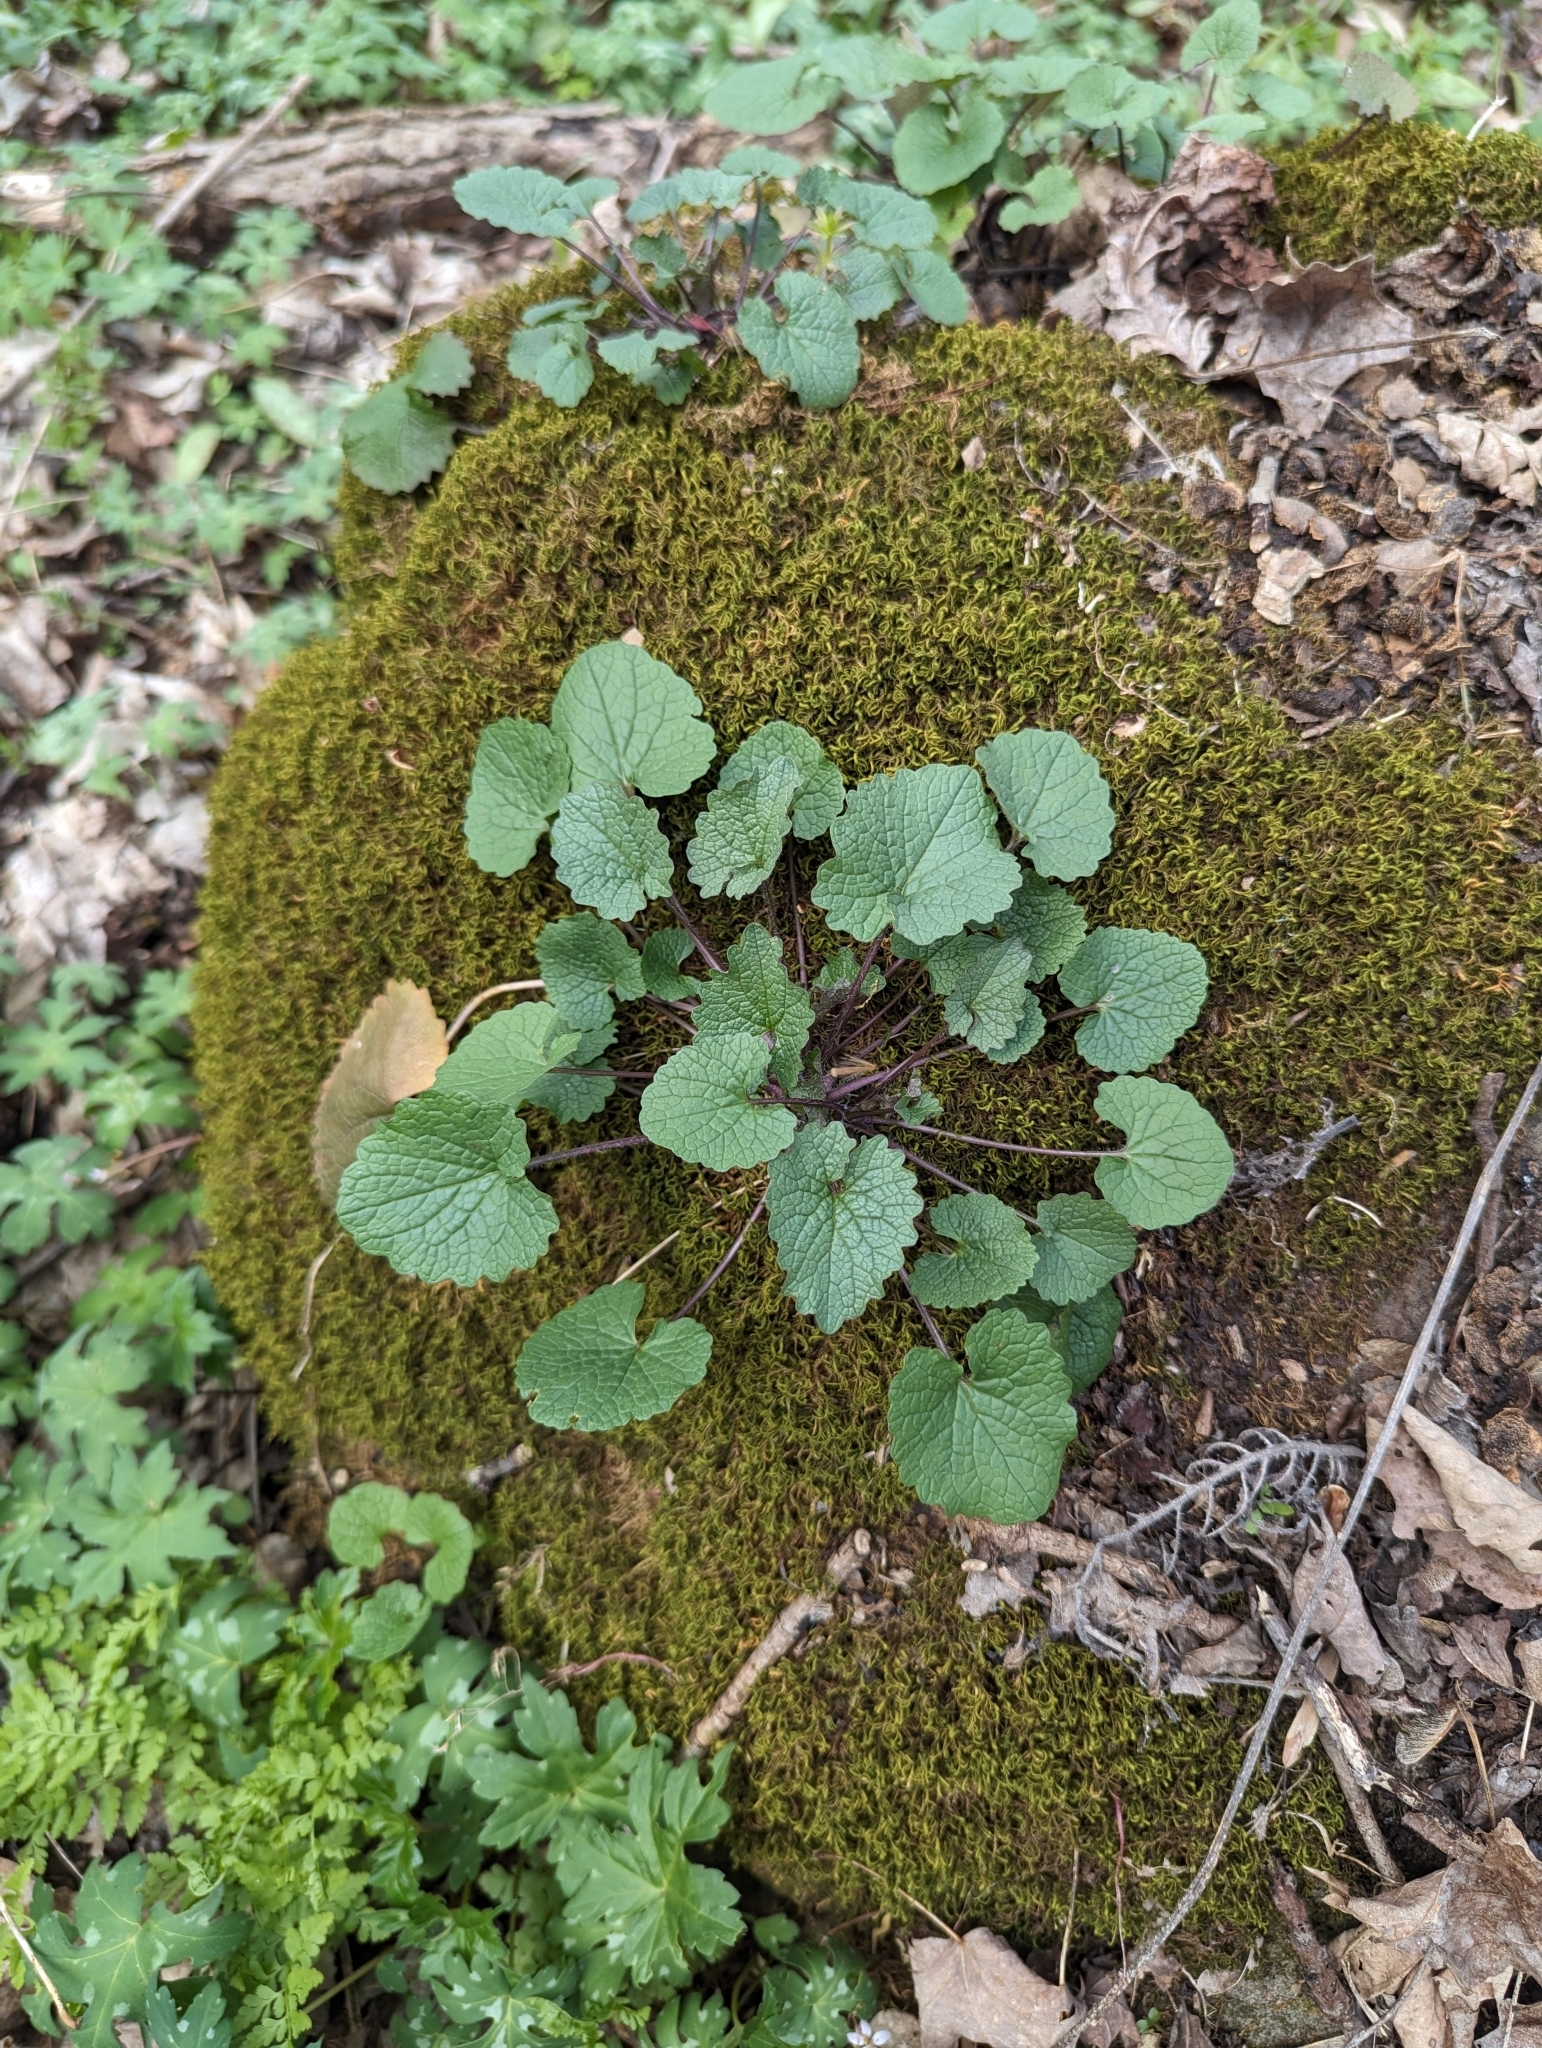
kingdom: Plantae
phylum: Tracheophyta
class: Magnoliopsida
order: Brassicales
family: Brassicaceae
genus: Alliaria
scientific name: Alliaria petiolata
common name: Garlic mustard
